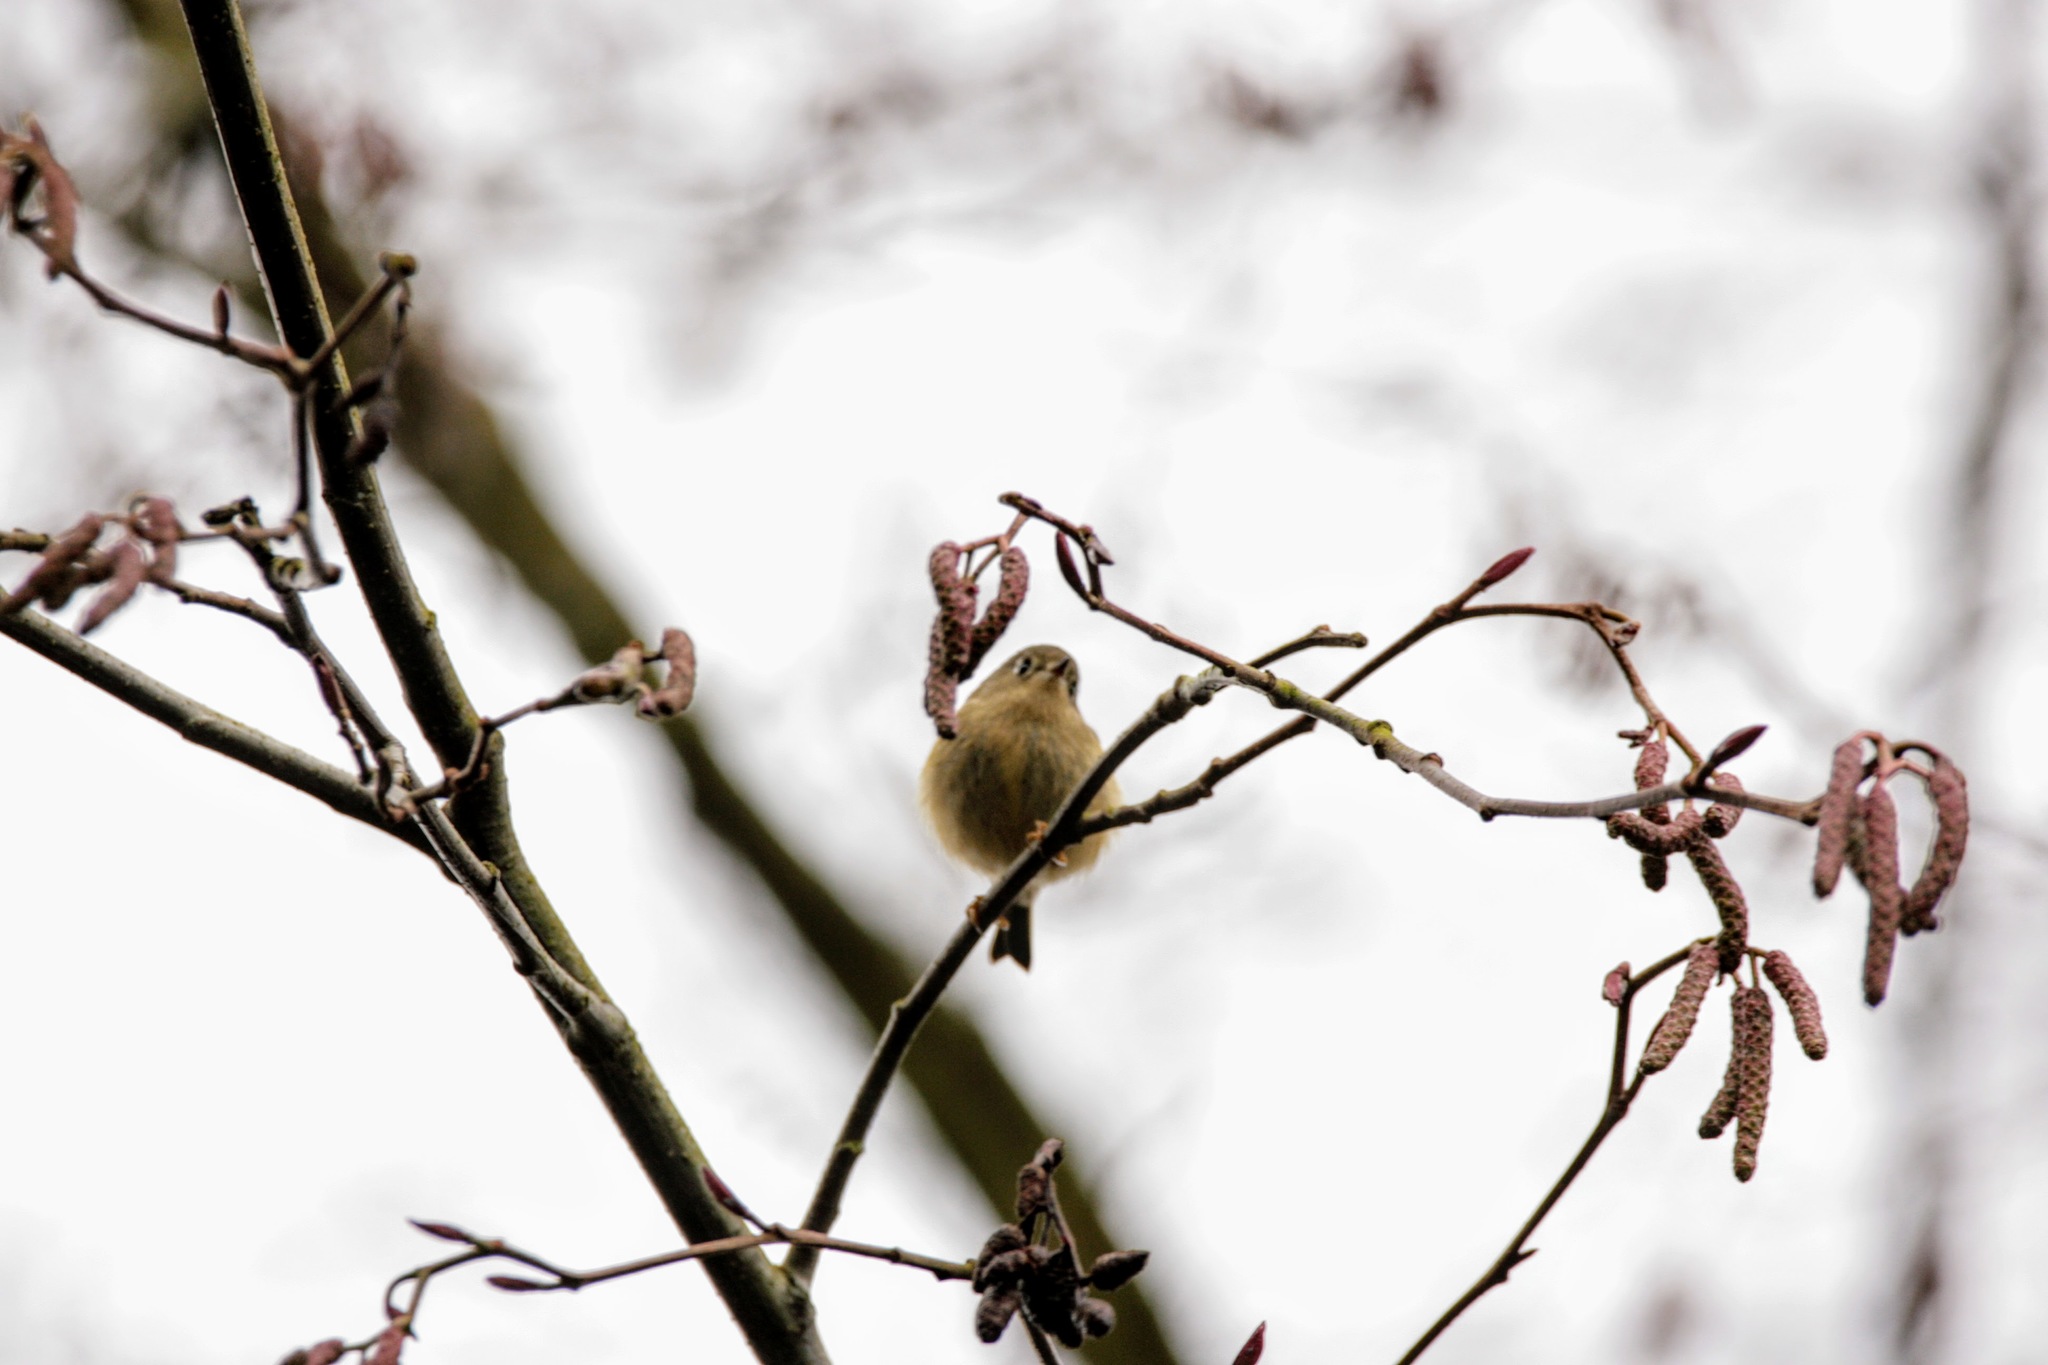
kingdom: Animalia
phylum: Chordata
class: Aves
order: Passeriformes
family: Regulidae
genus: Regulus
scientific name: Regulus calendula
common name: Ruby-crowned kinglet
